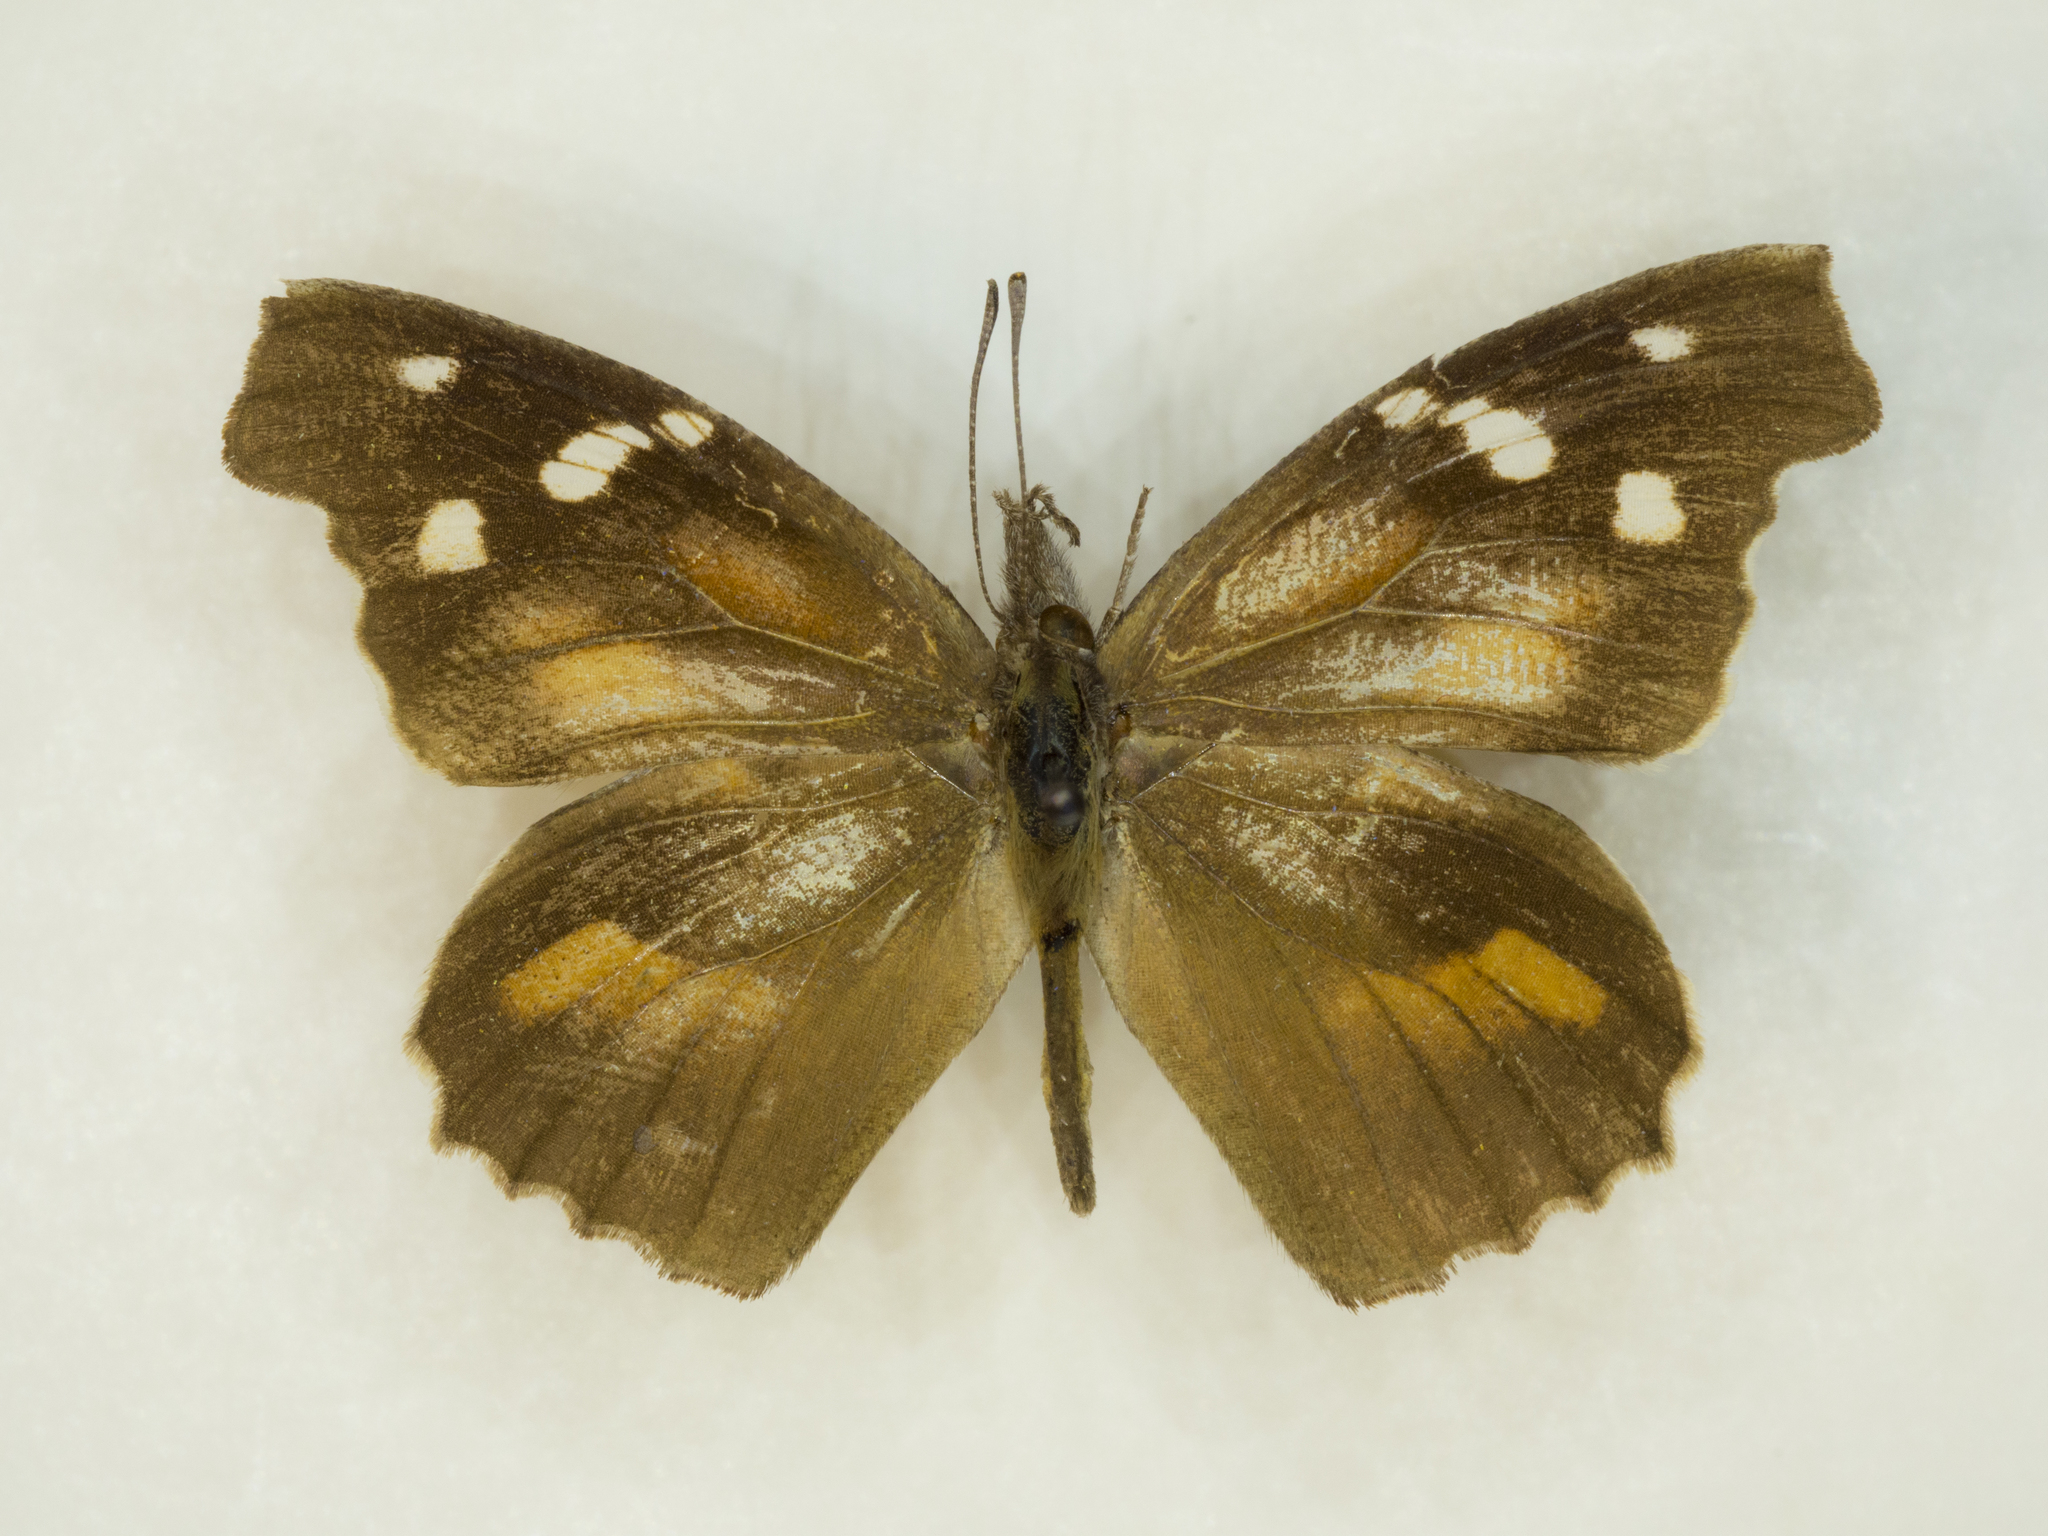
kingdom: Animalia
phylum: Arthropoda
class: Insecta
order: Lepidoptera
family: Nymphalidae
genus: Libytheana
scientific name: Libytheana carinenta
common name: American snout
